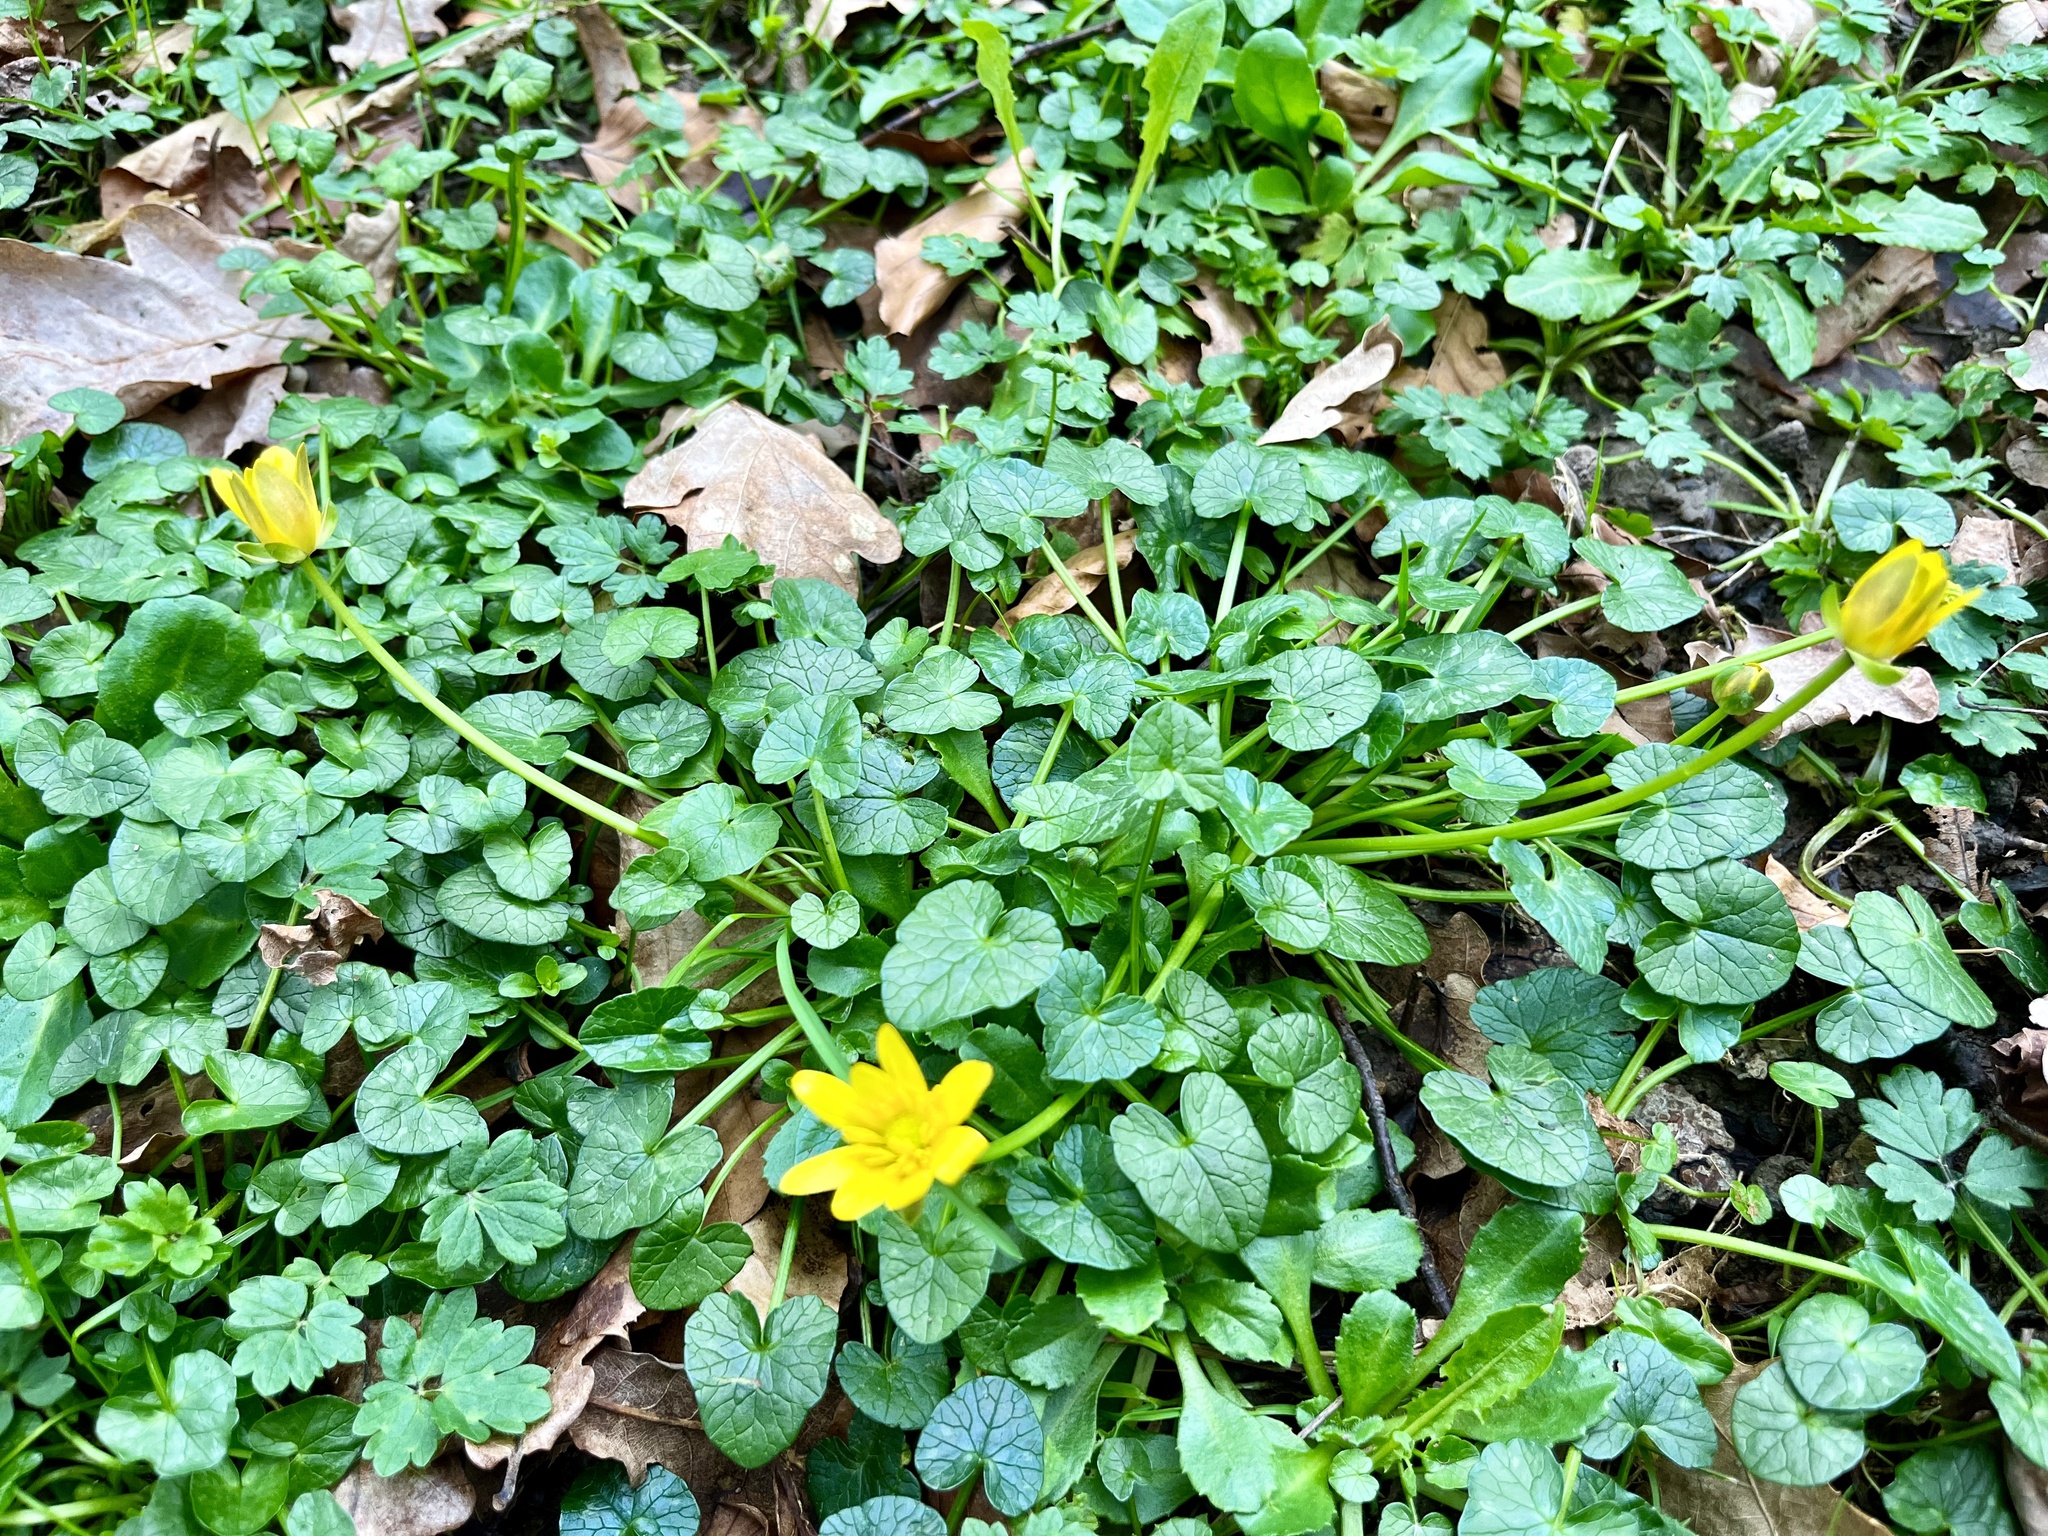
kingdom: Plantae
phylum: Tracheophyta
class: Magnoliopsida
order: Ranunculales
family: Ranunculaceae
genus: Ficaria
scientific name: Ficaria verna
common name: Lesser celandine
